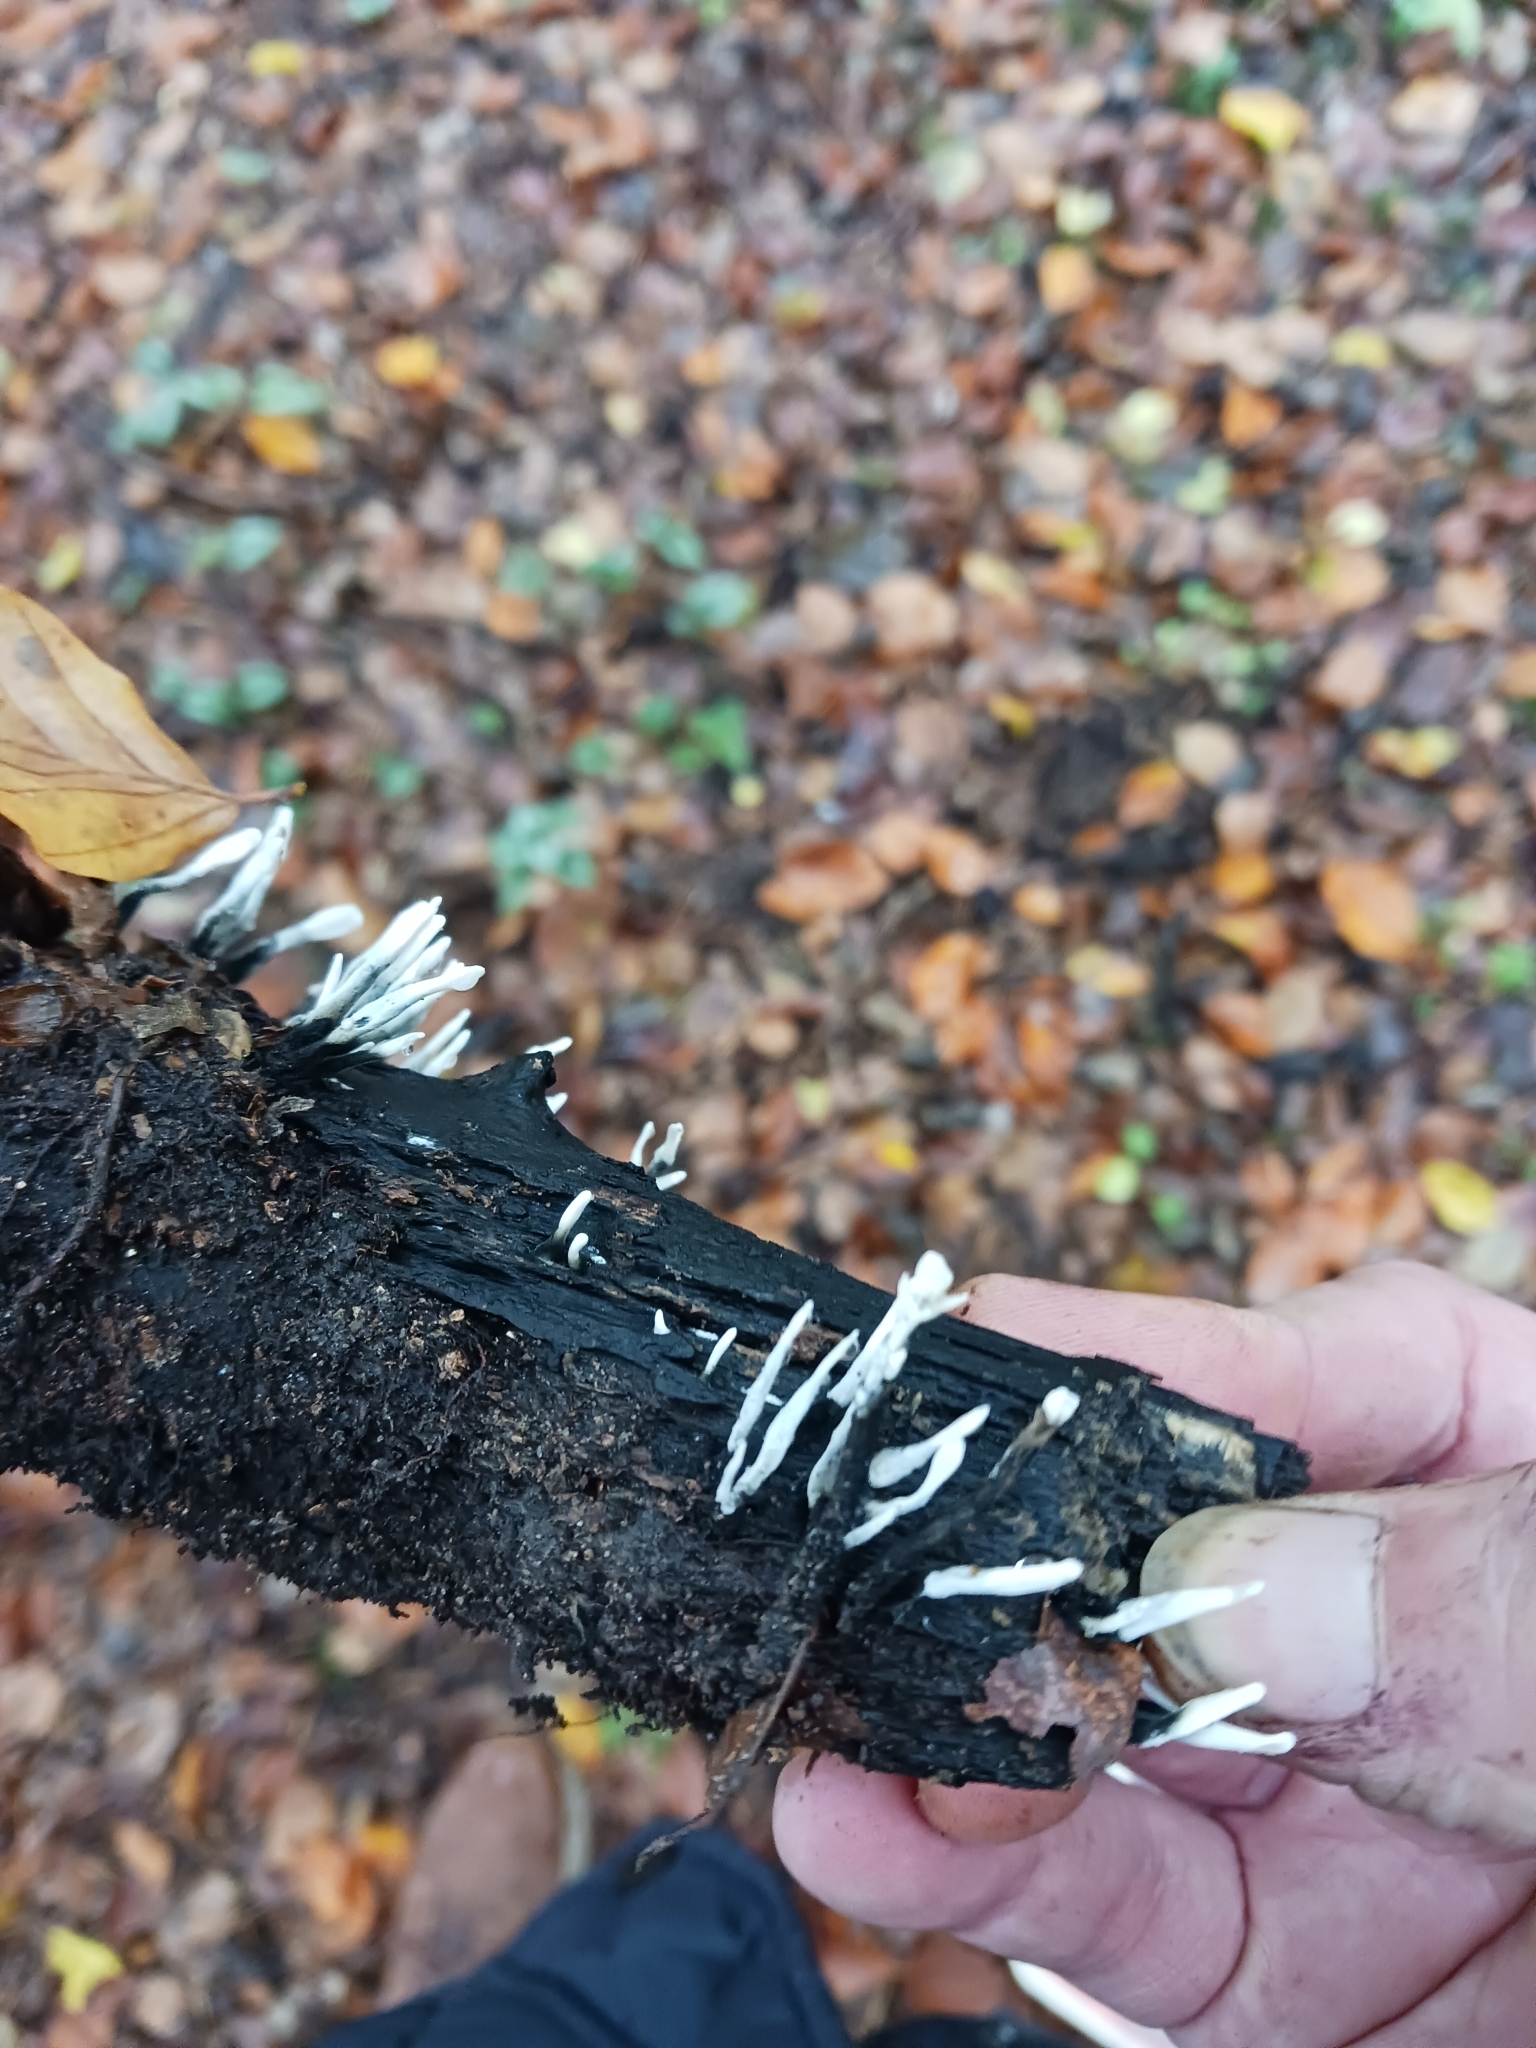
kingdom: Fungi
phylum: Ascomycota
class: Sordariomycetes
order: Xylariales
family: Xylariaceae
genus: Xylaria
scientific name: Xylaria hypoxylon
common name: Candle-snuff fungus
